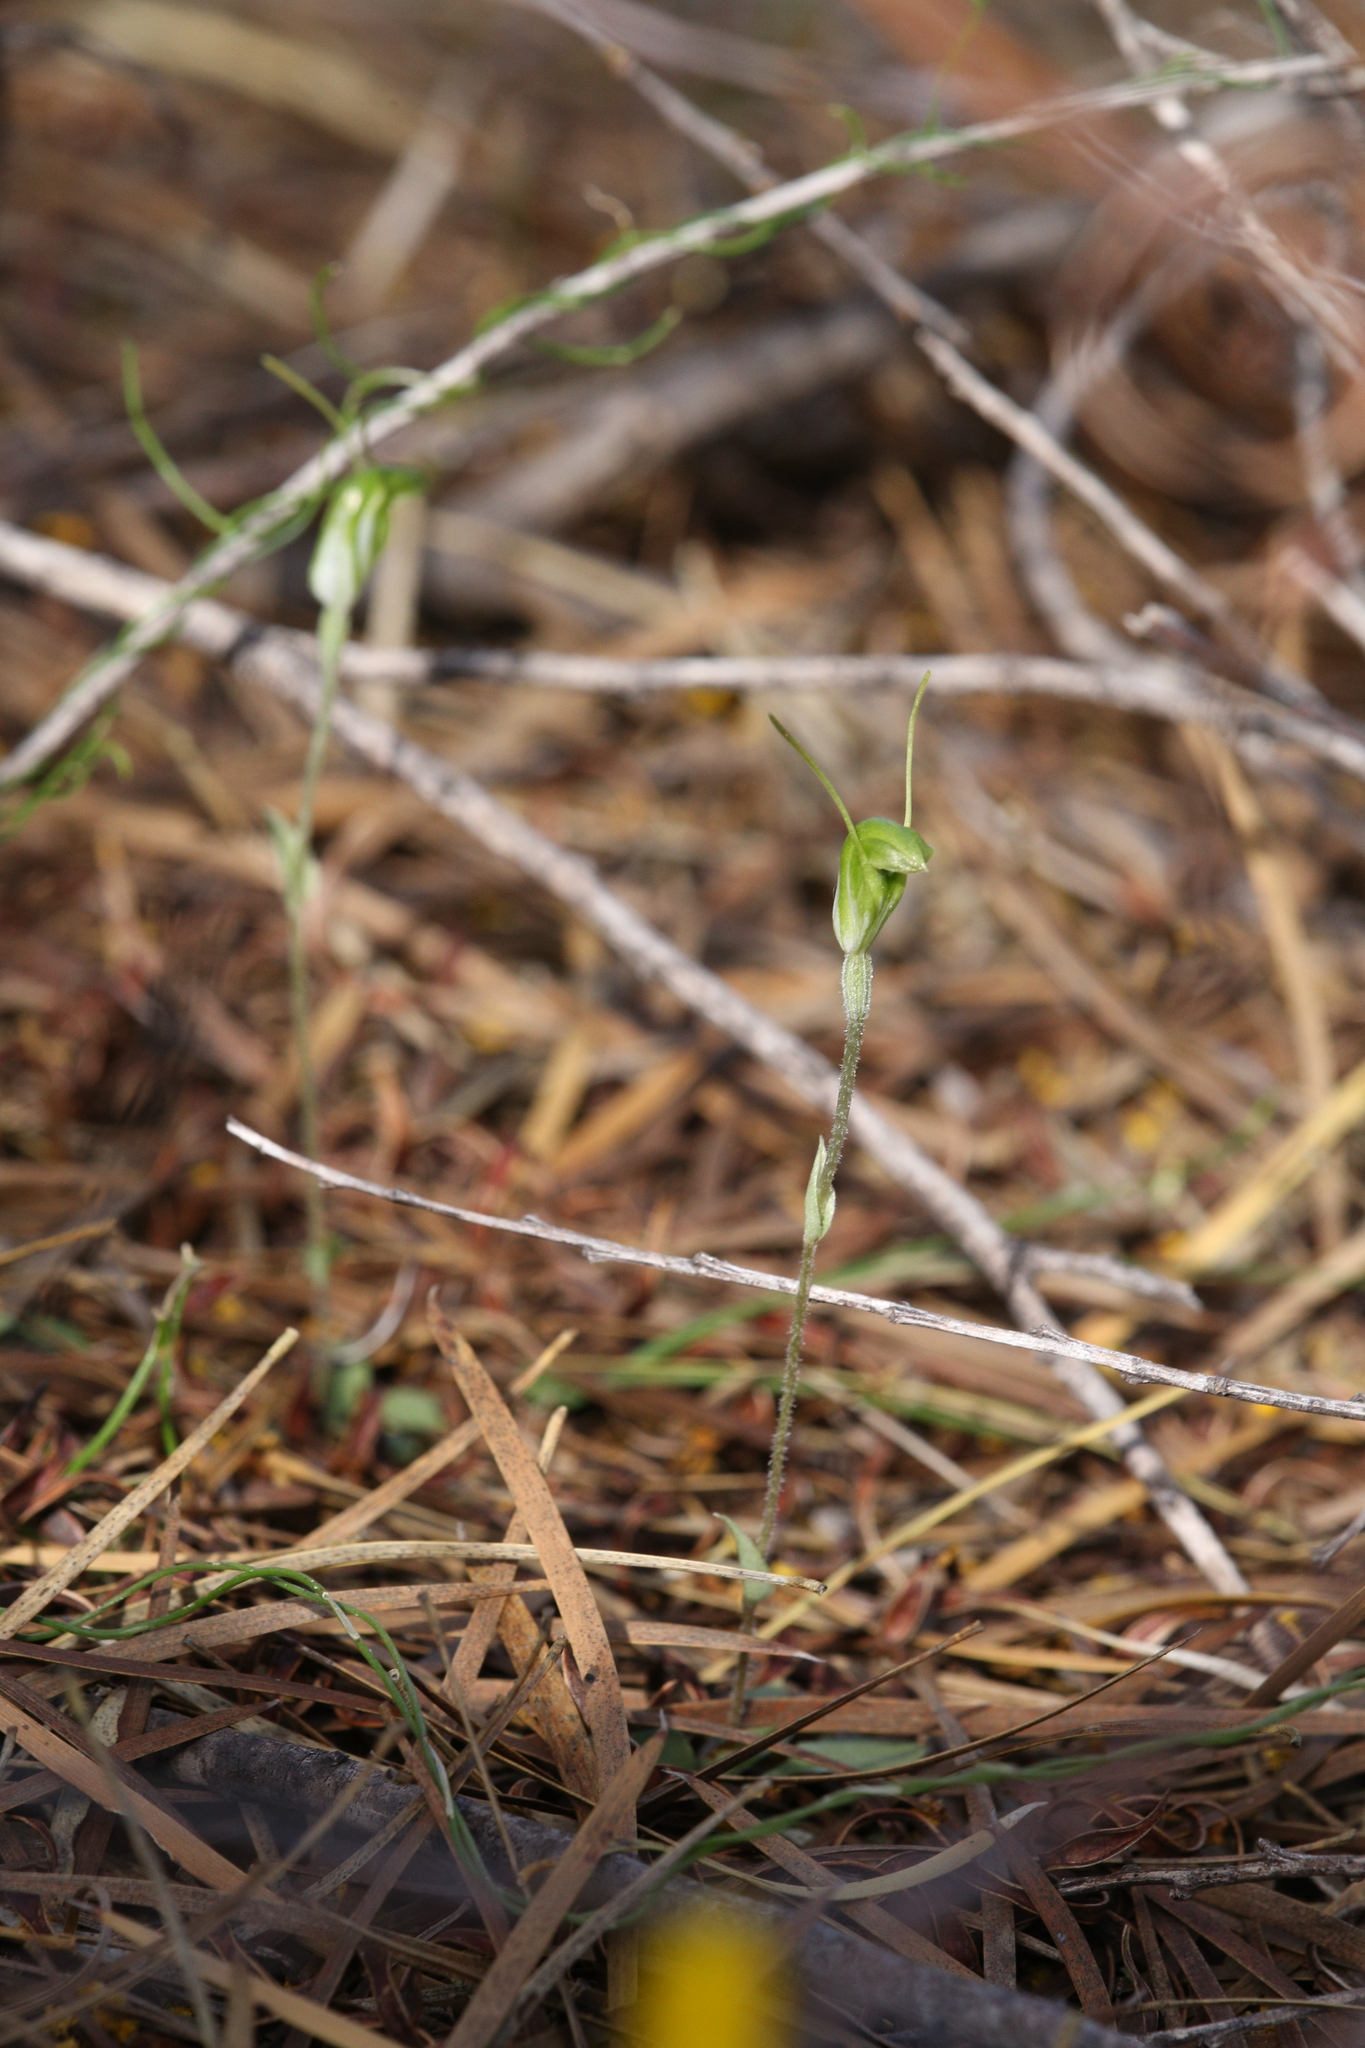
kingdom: Plantae
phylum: Tracheophyta
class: Liliopsida
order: Asparagales
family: Orchidaceae
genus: Pterostylis
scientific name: Pterostylis setulosa
